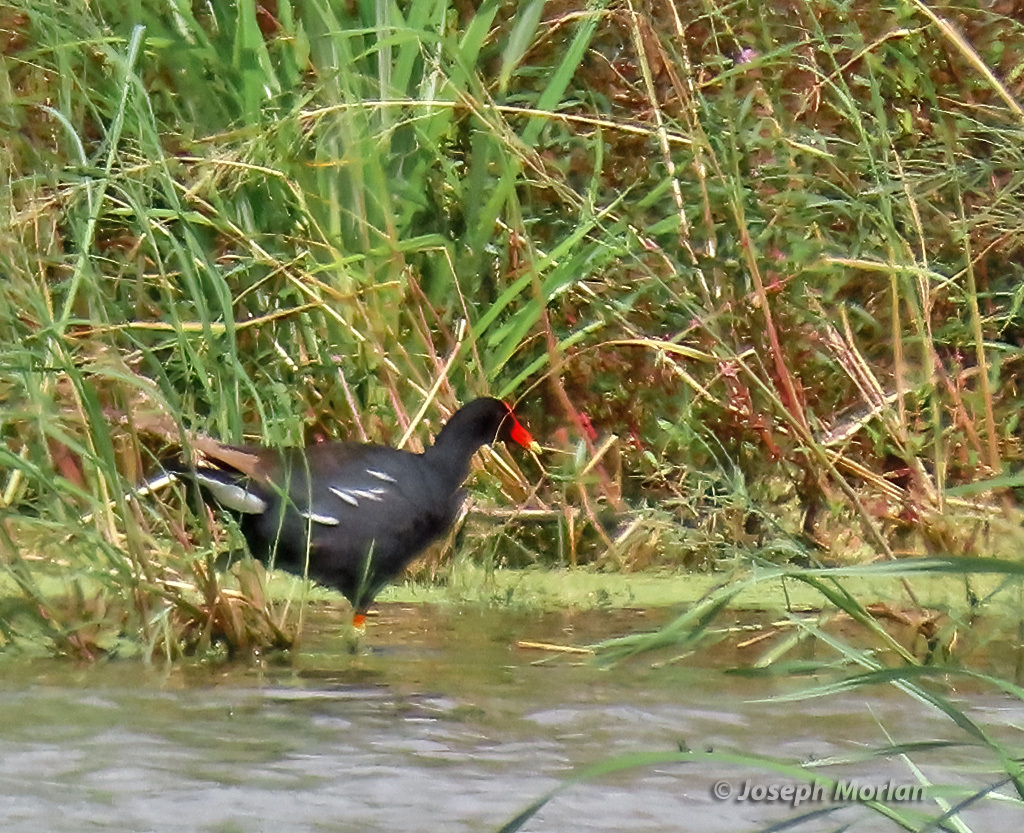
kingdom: Animalia
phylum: Chordata
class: Aves
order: Gruiformes
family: Rallidae
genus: Gallinula
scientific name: Gallinula chloropus
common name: Common moorhen
